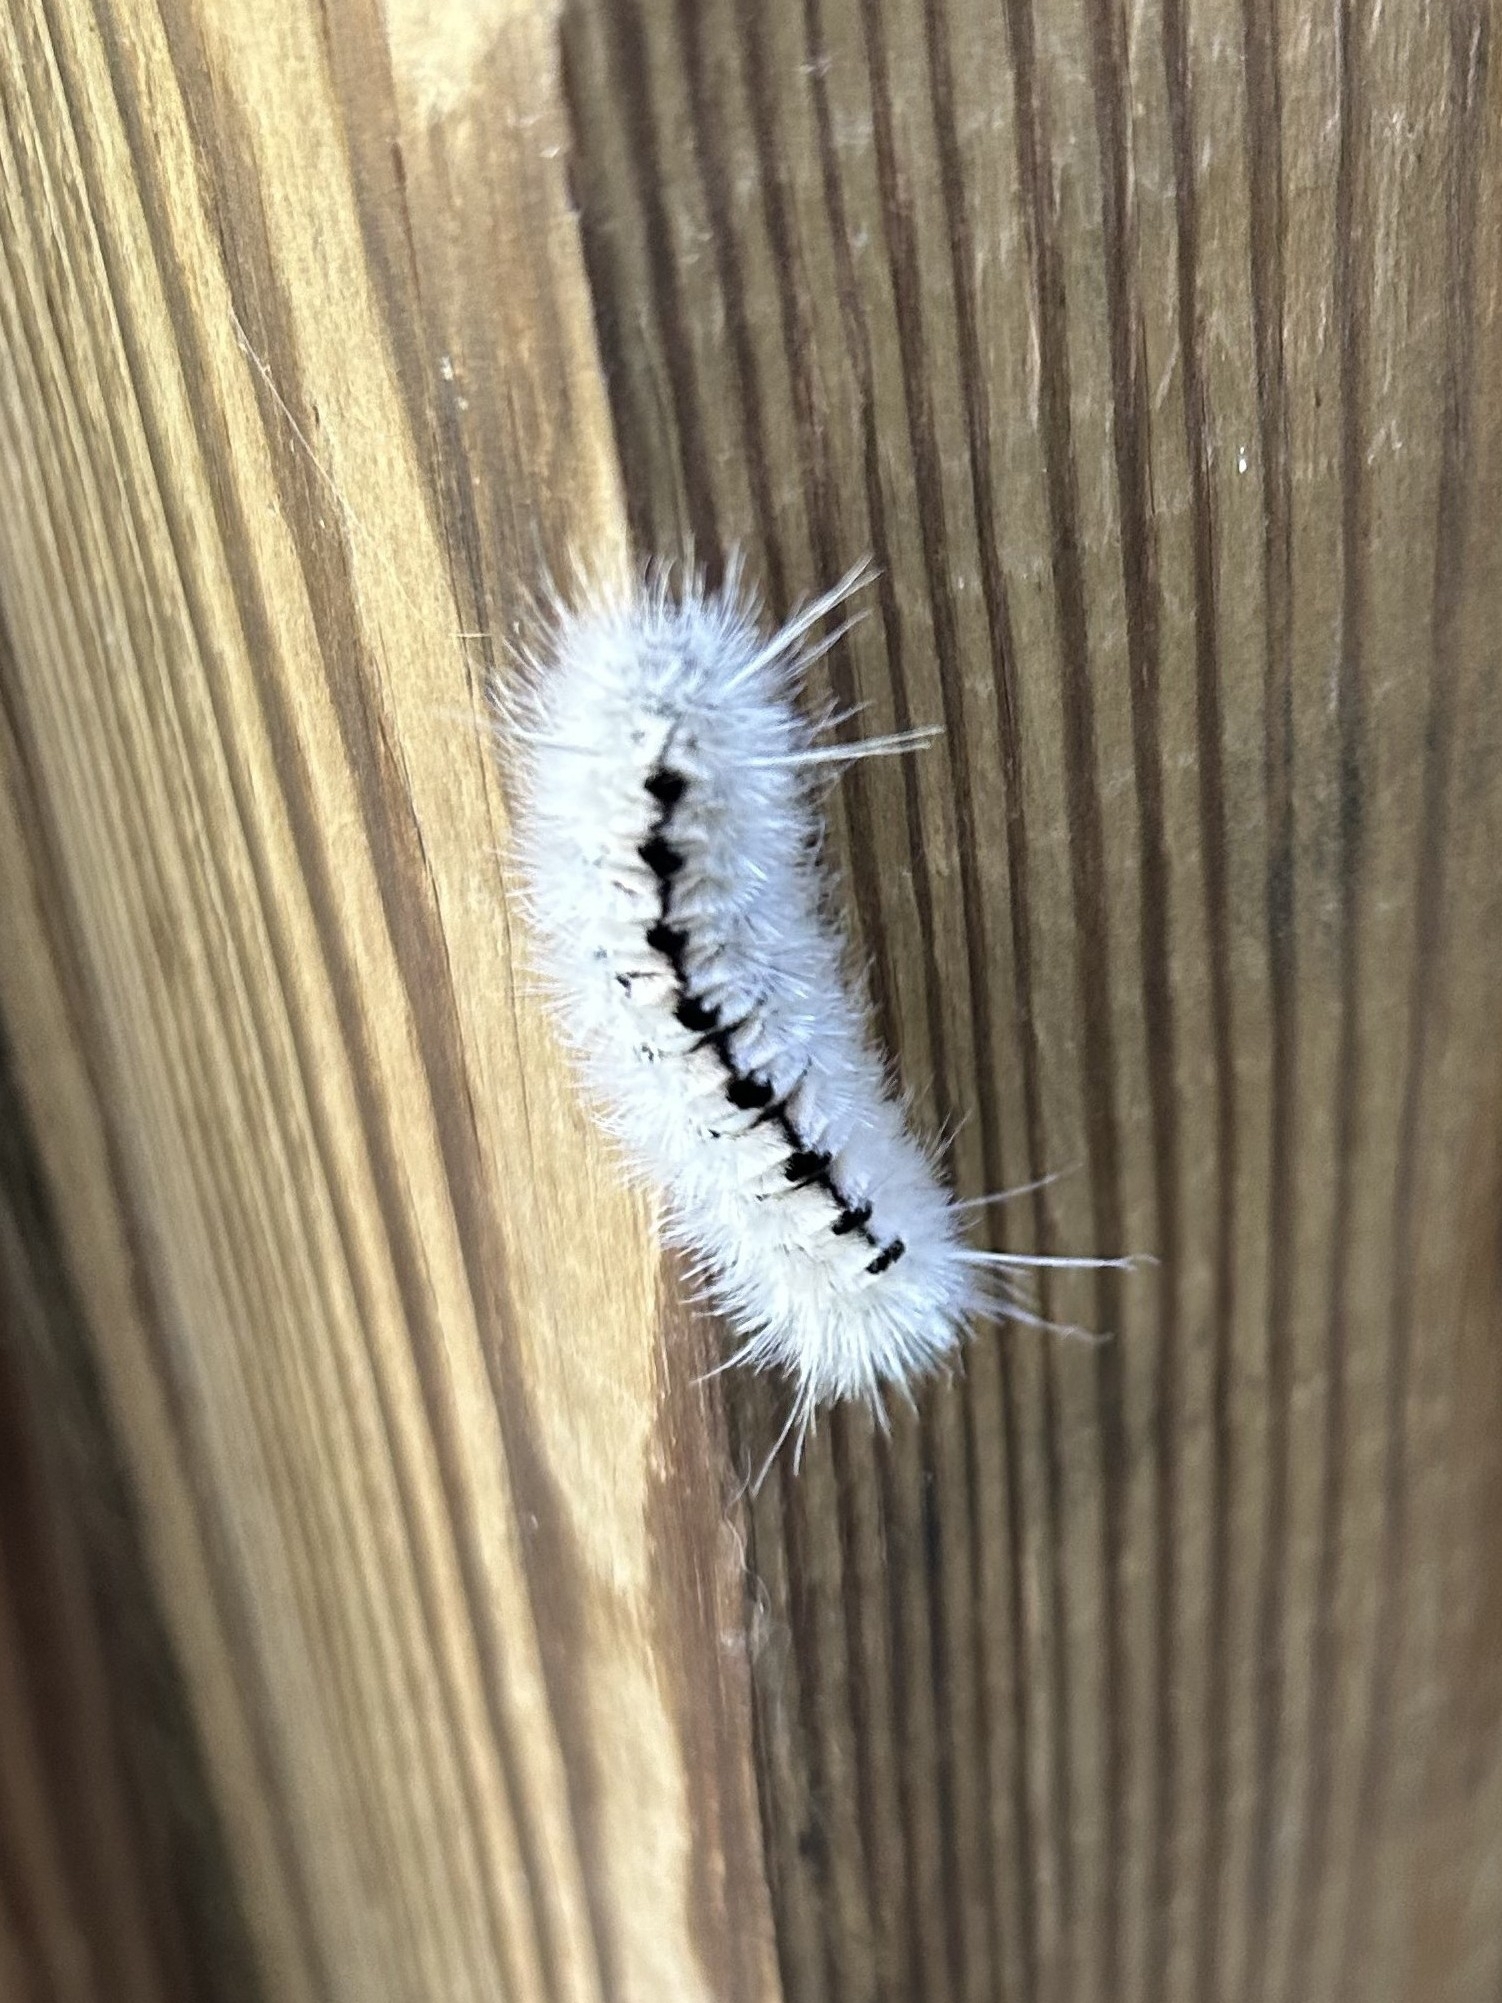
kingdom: Animalia
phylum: Arthropoda
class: Insecta
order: Lepidoptera
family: Erebidae
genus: Lophocampa
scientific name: Lophocampa caryae
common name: Hickory tussock moth
